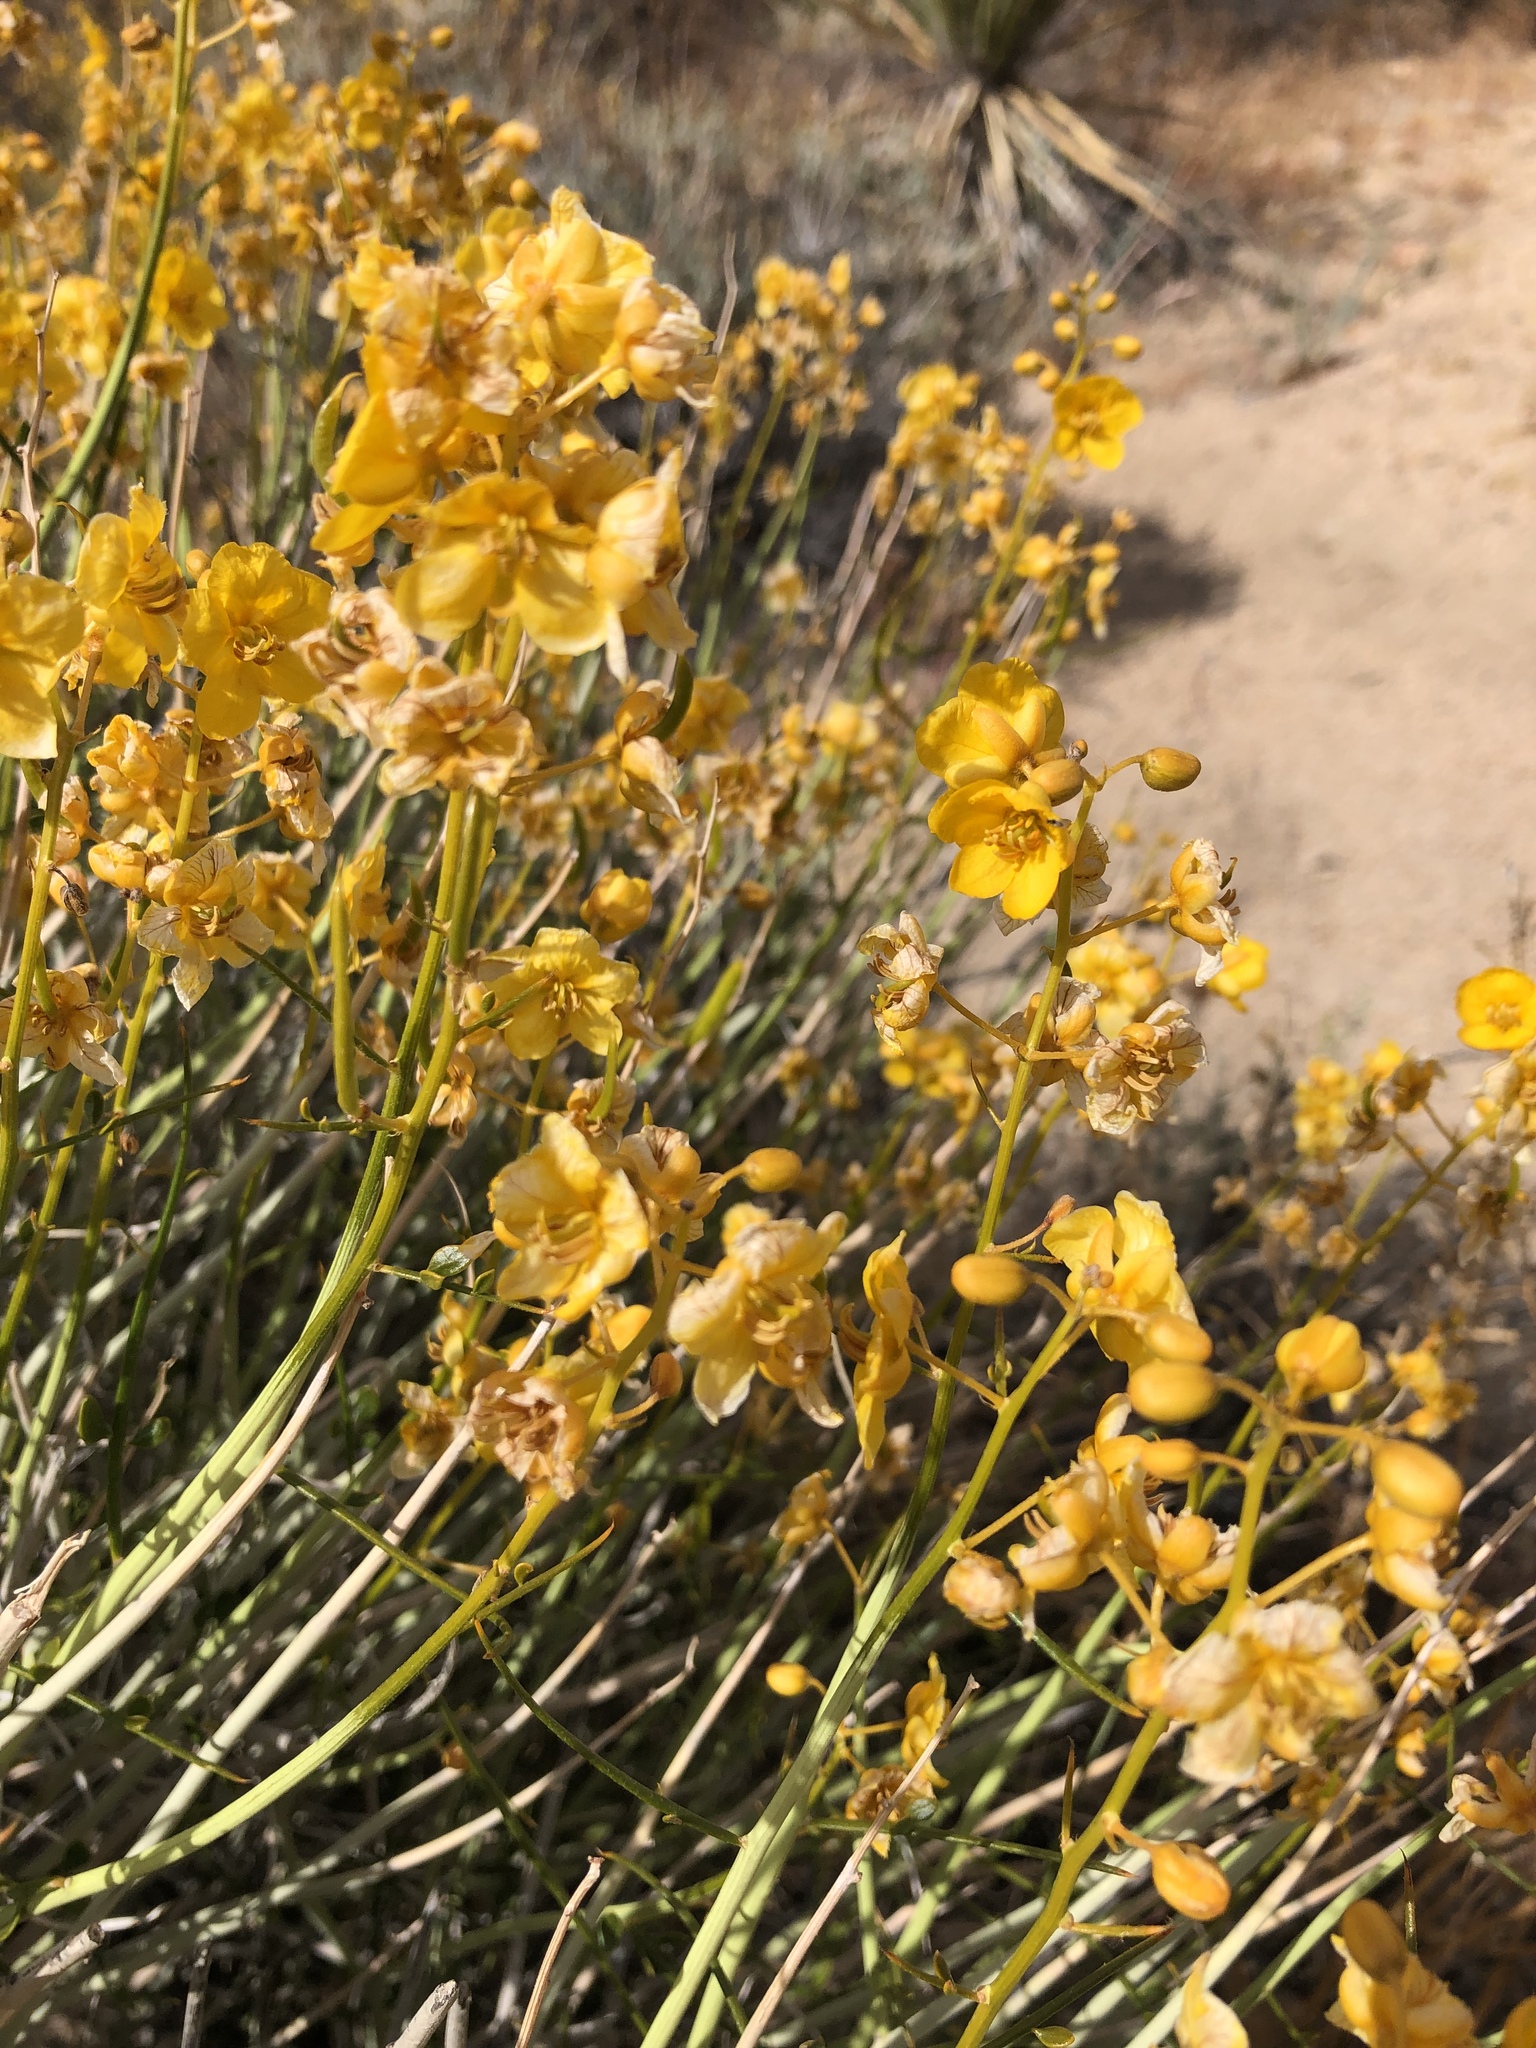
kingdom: Plantae
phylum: Tracheophyta
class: Magnoliopsida
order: Fabales
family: Fabaceae
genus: Senna
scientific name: Senna armata
